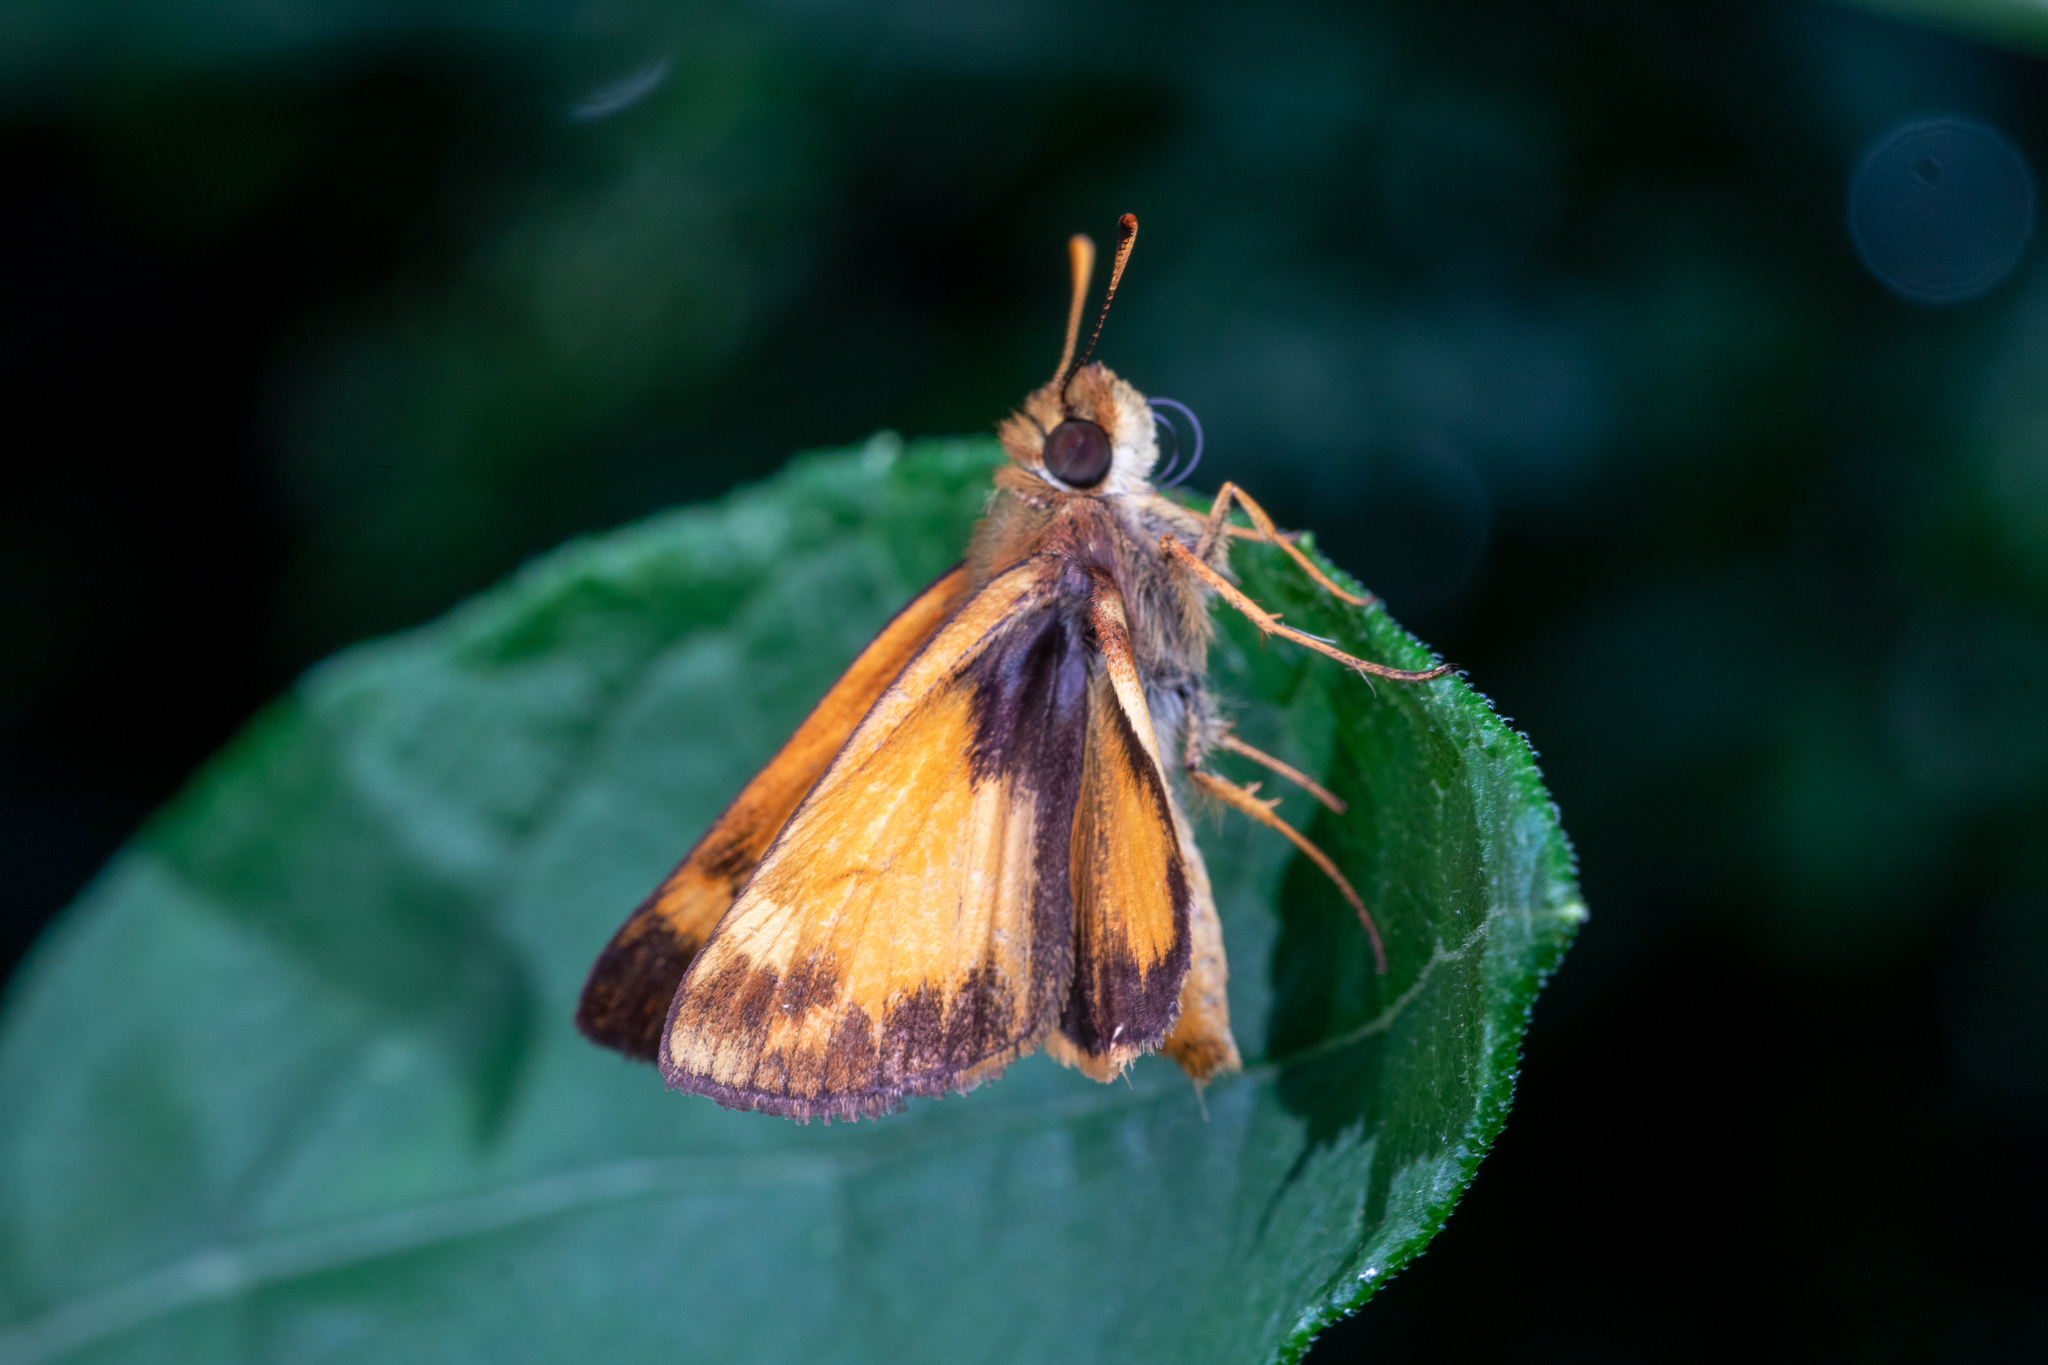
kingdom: Animalia
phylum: Arthropoda
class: Insecta
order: Lepidoptera
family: Hesperiidae
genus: Lon
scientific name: Lon zabulon
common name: Zabulon skipper
